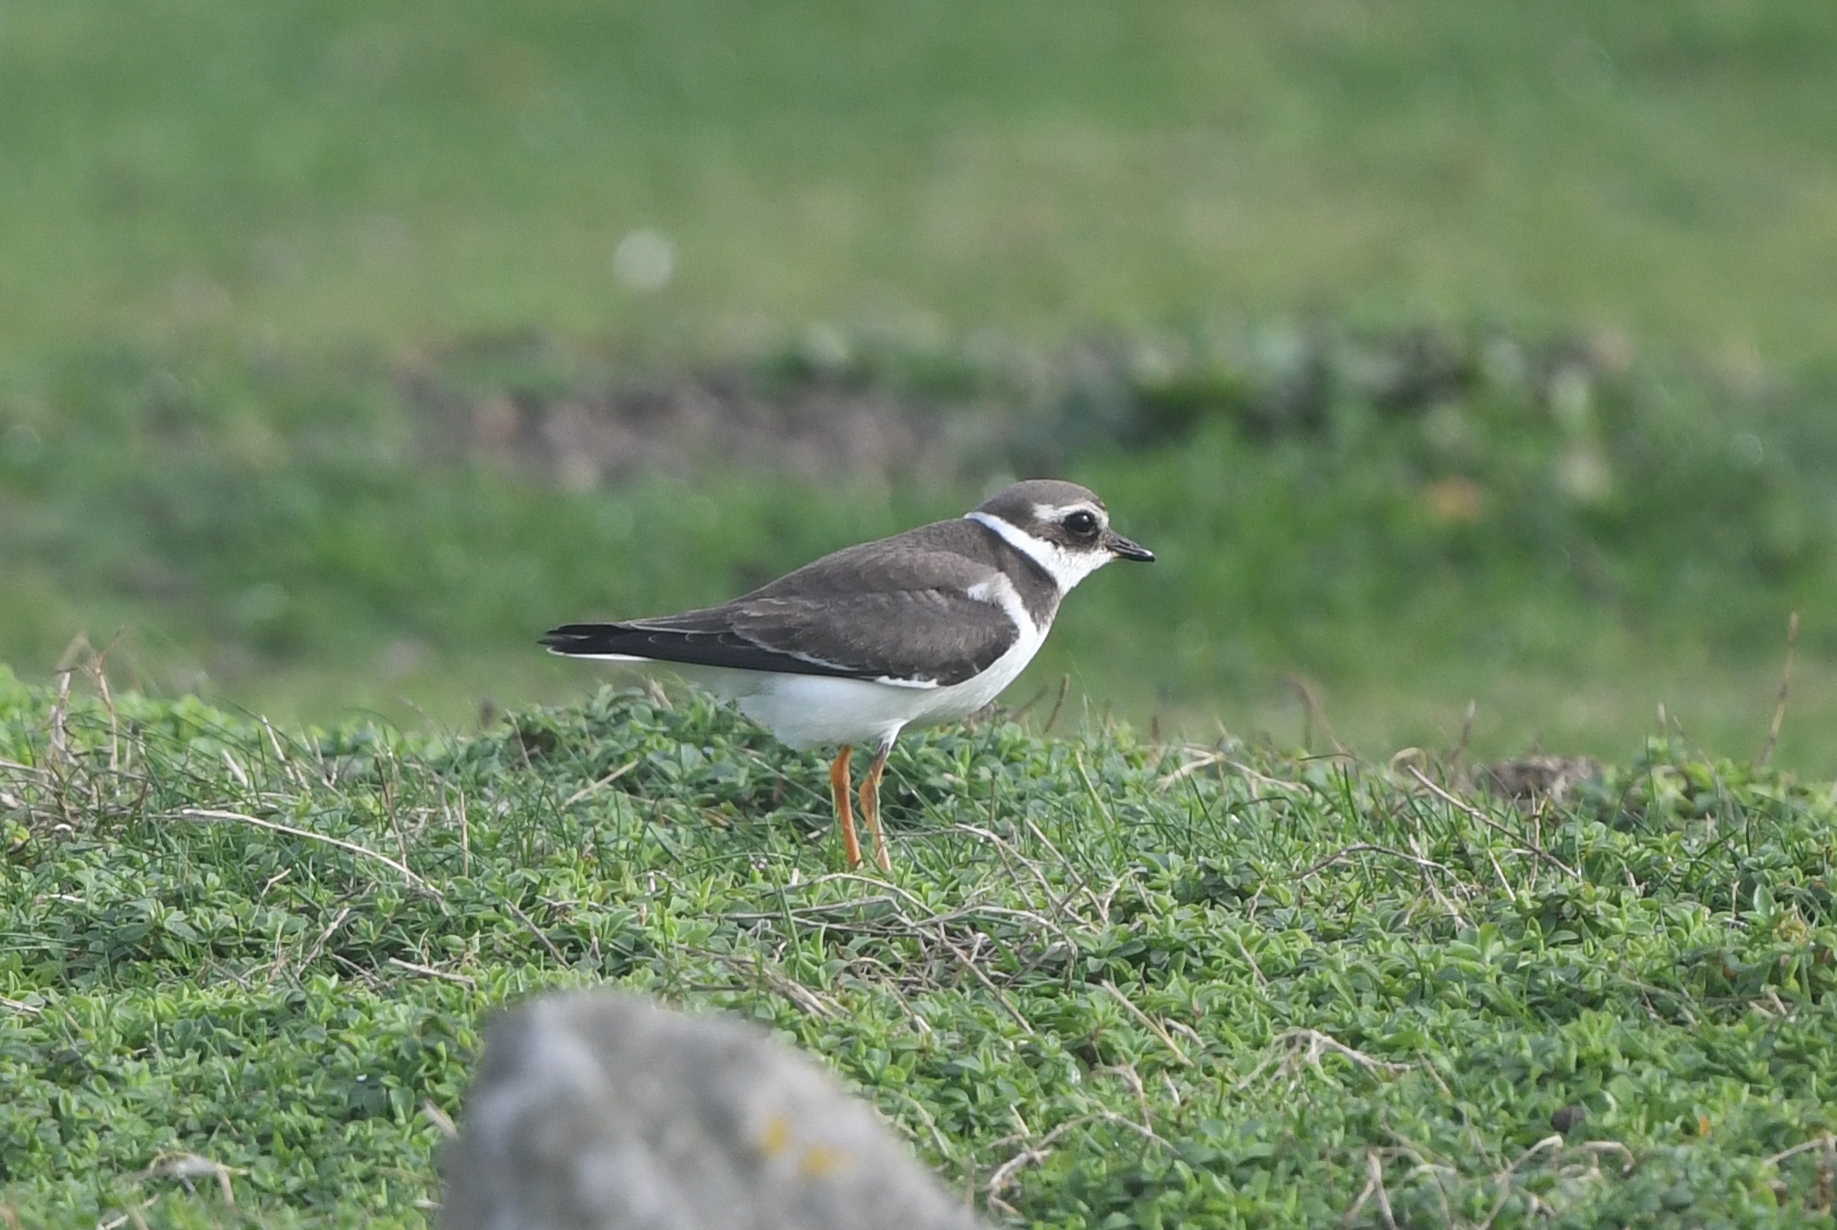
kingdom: Animalia
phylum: Chordata
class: Aves
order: Charadriiformes
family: Charadriidae
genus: Charadrius
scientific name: Charadrius hiaticula
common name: Common ringed plover
